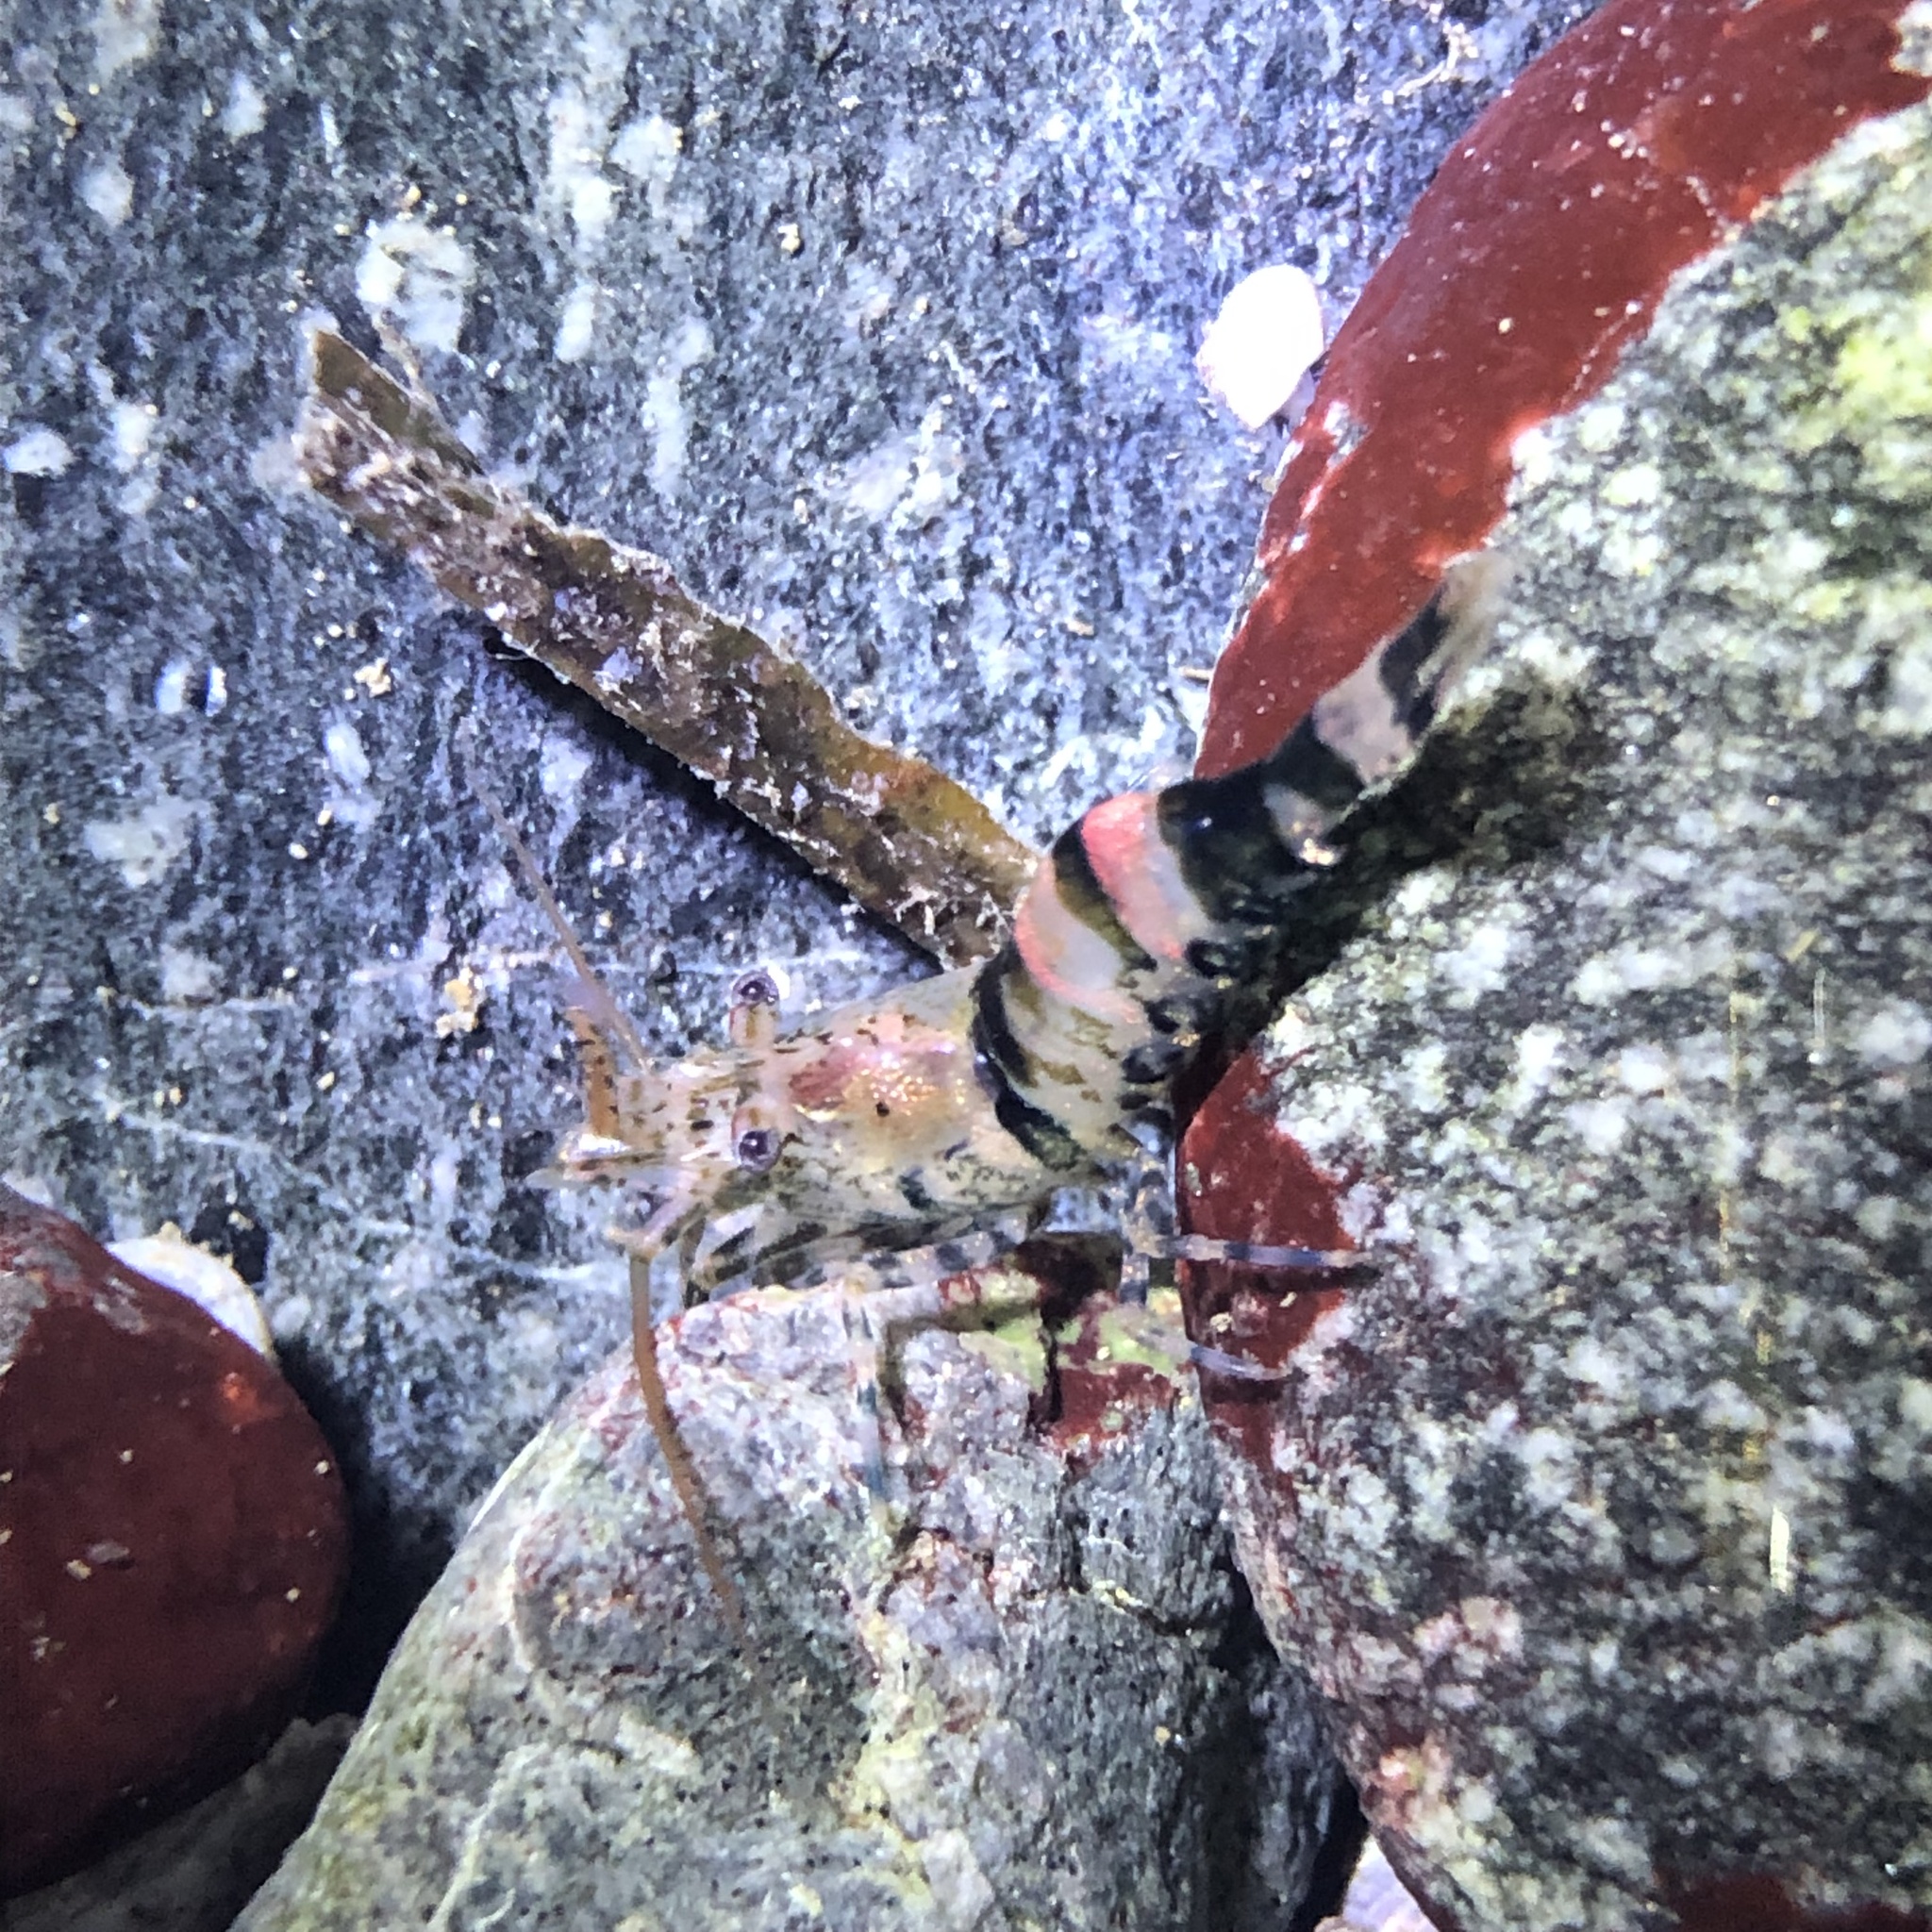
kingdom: Animalia
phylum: Arthropoda
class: Malacostraca
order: Decapoda
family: Thoridae
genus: Heptacarpus
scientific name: Heptacarpus brevirostris
